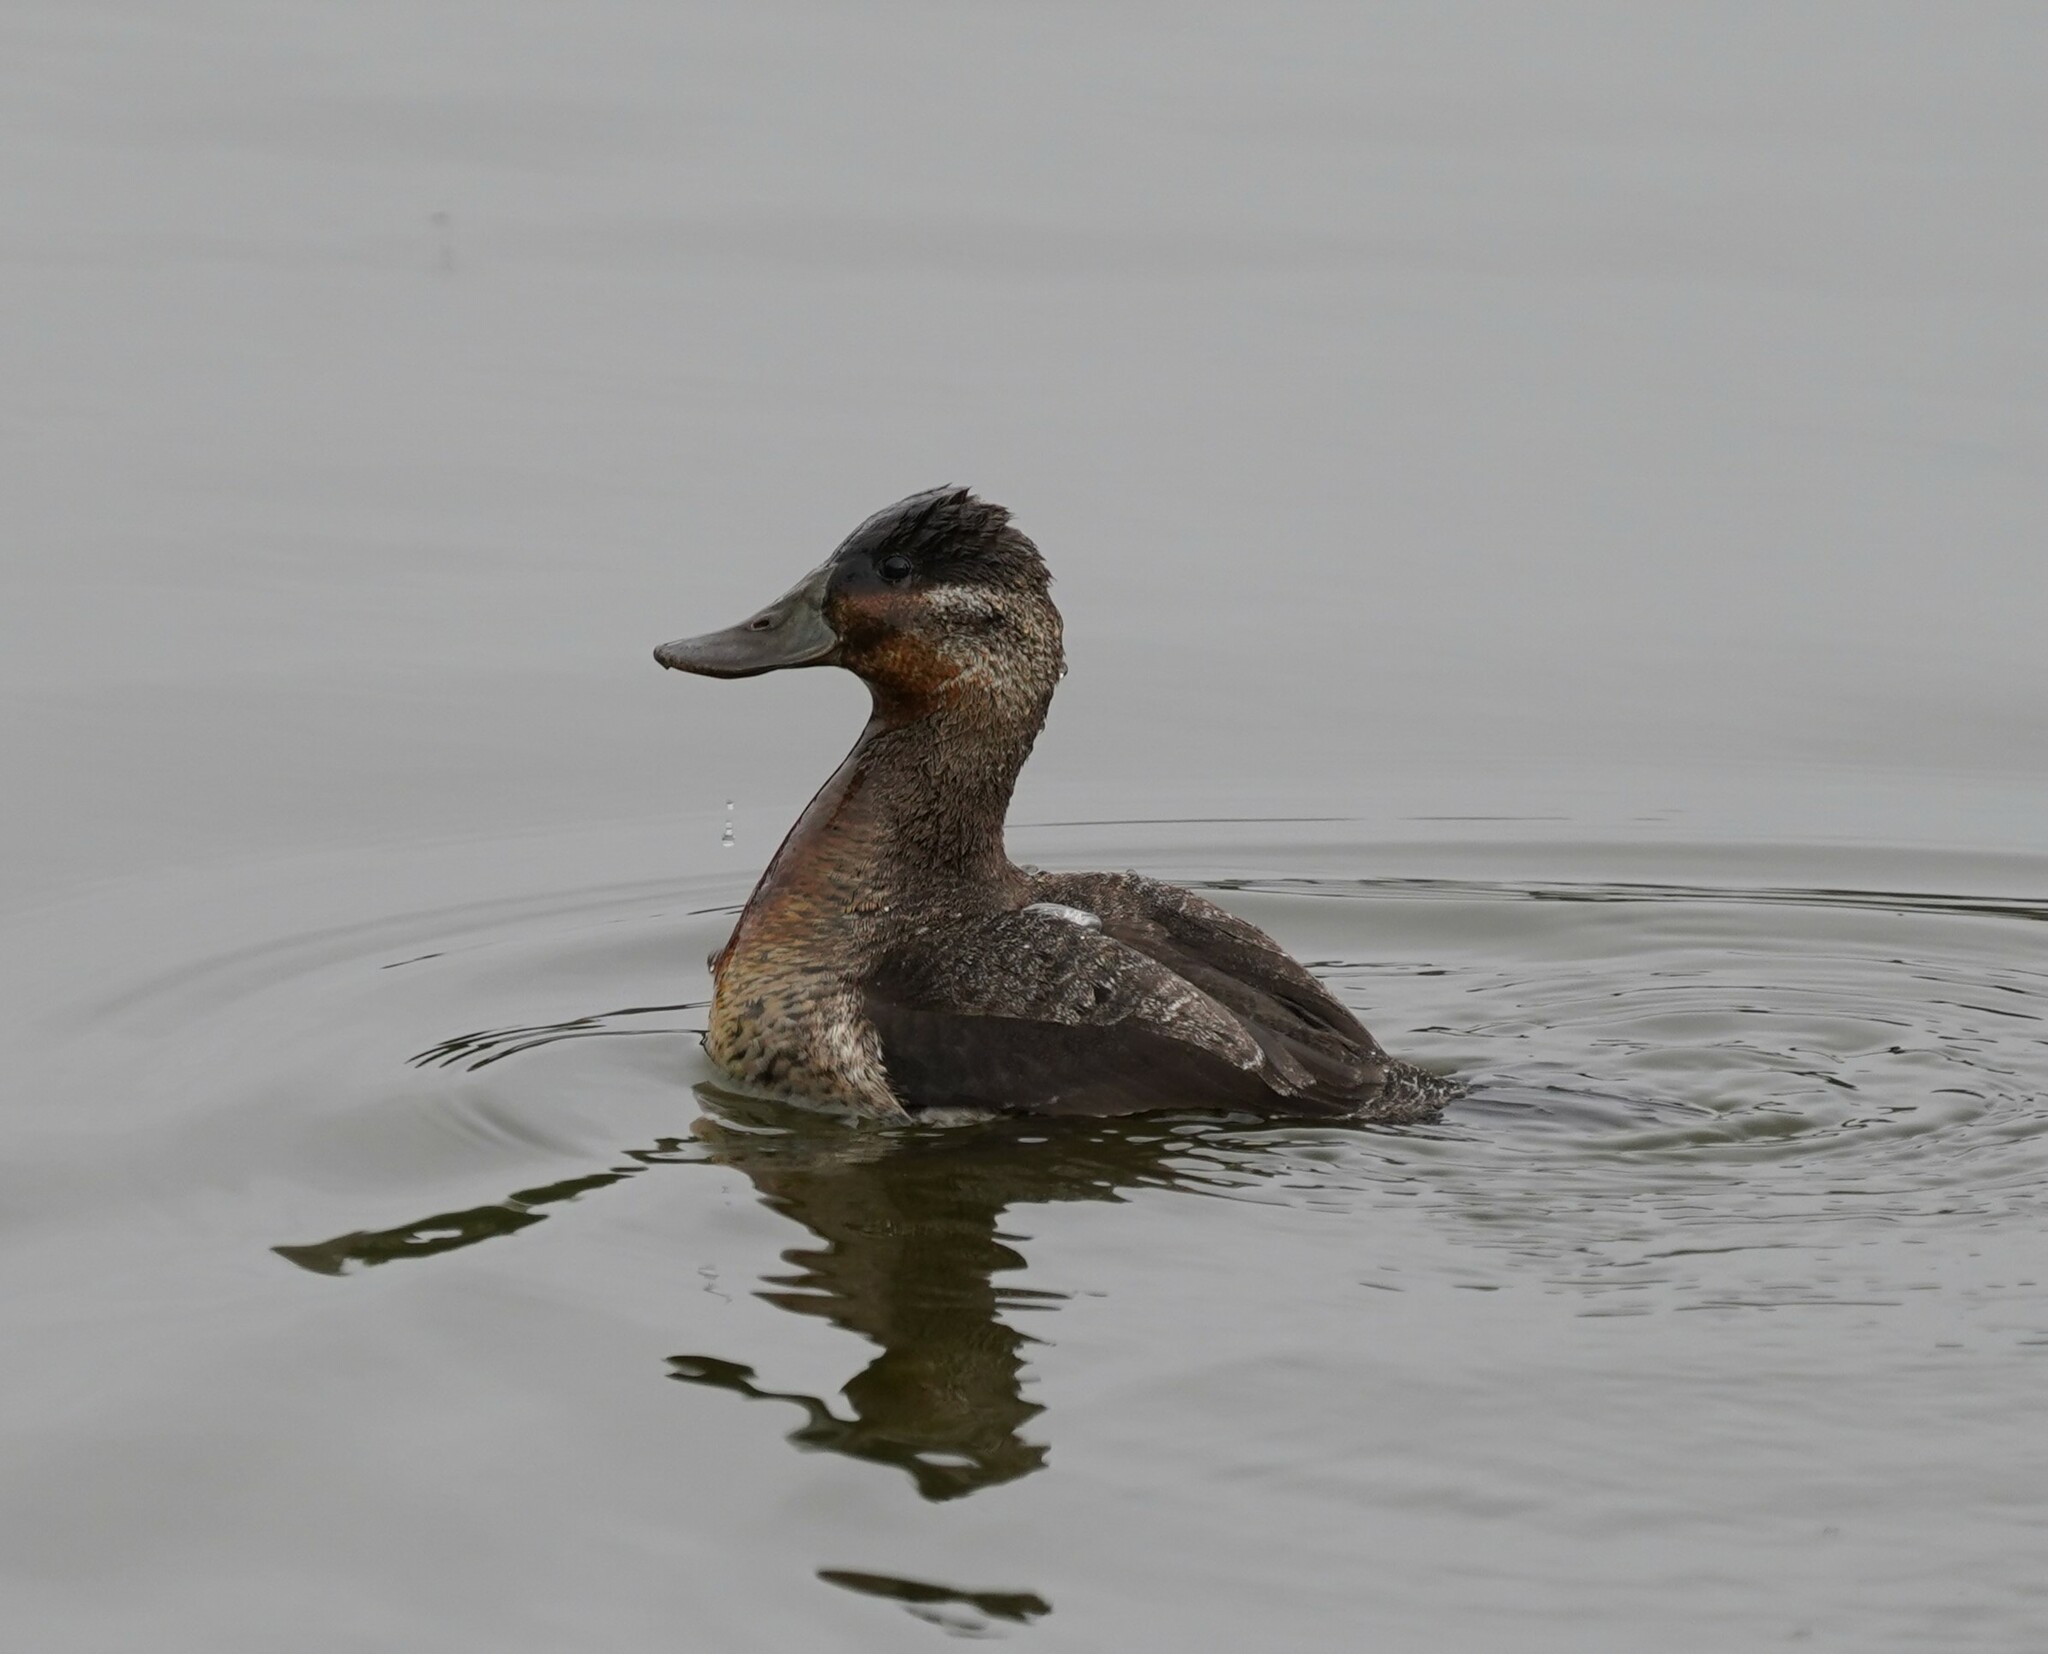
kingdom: Animalia
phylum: Chordata
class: Aves
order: Anseriformes
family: Anatidae
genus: Oxyura
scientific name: Oxyura jamaicensis
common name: Ruddy duck
